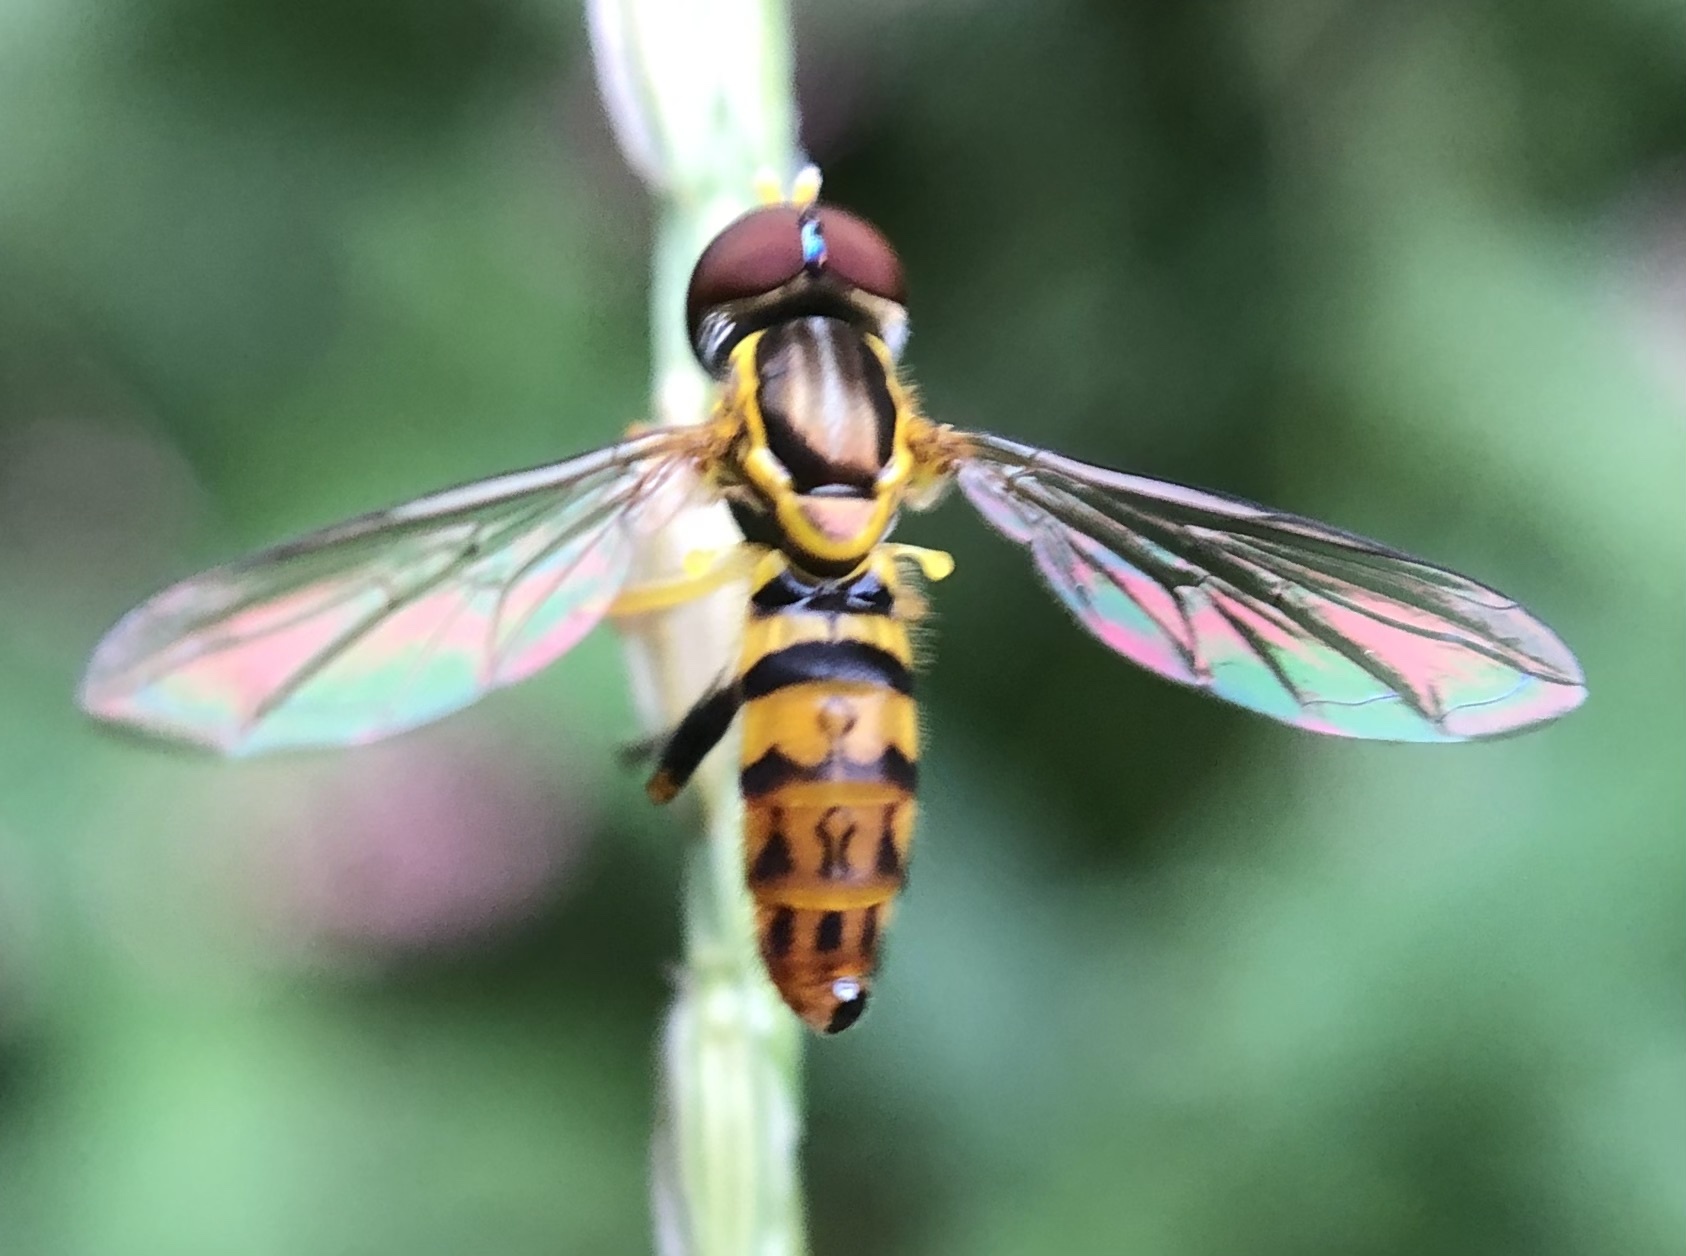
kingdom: Animalia
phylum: Arthropoda
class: Insecta
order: Diptera
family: Syrphidae
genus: Toxomerus
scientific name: Toxomerus geminatus
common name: Eastern calligrapher
